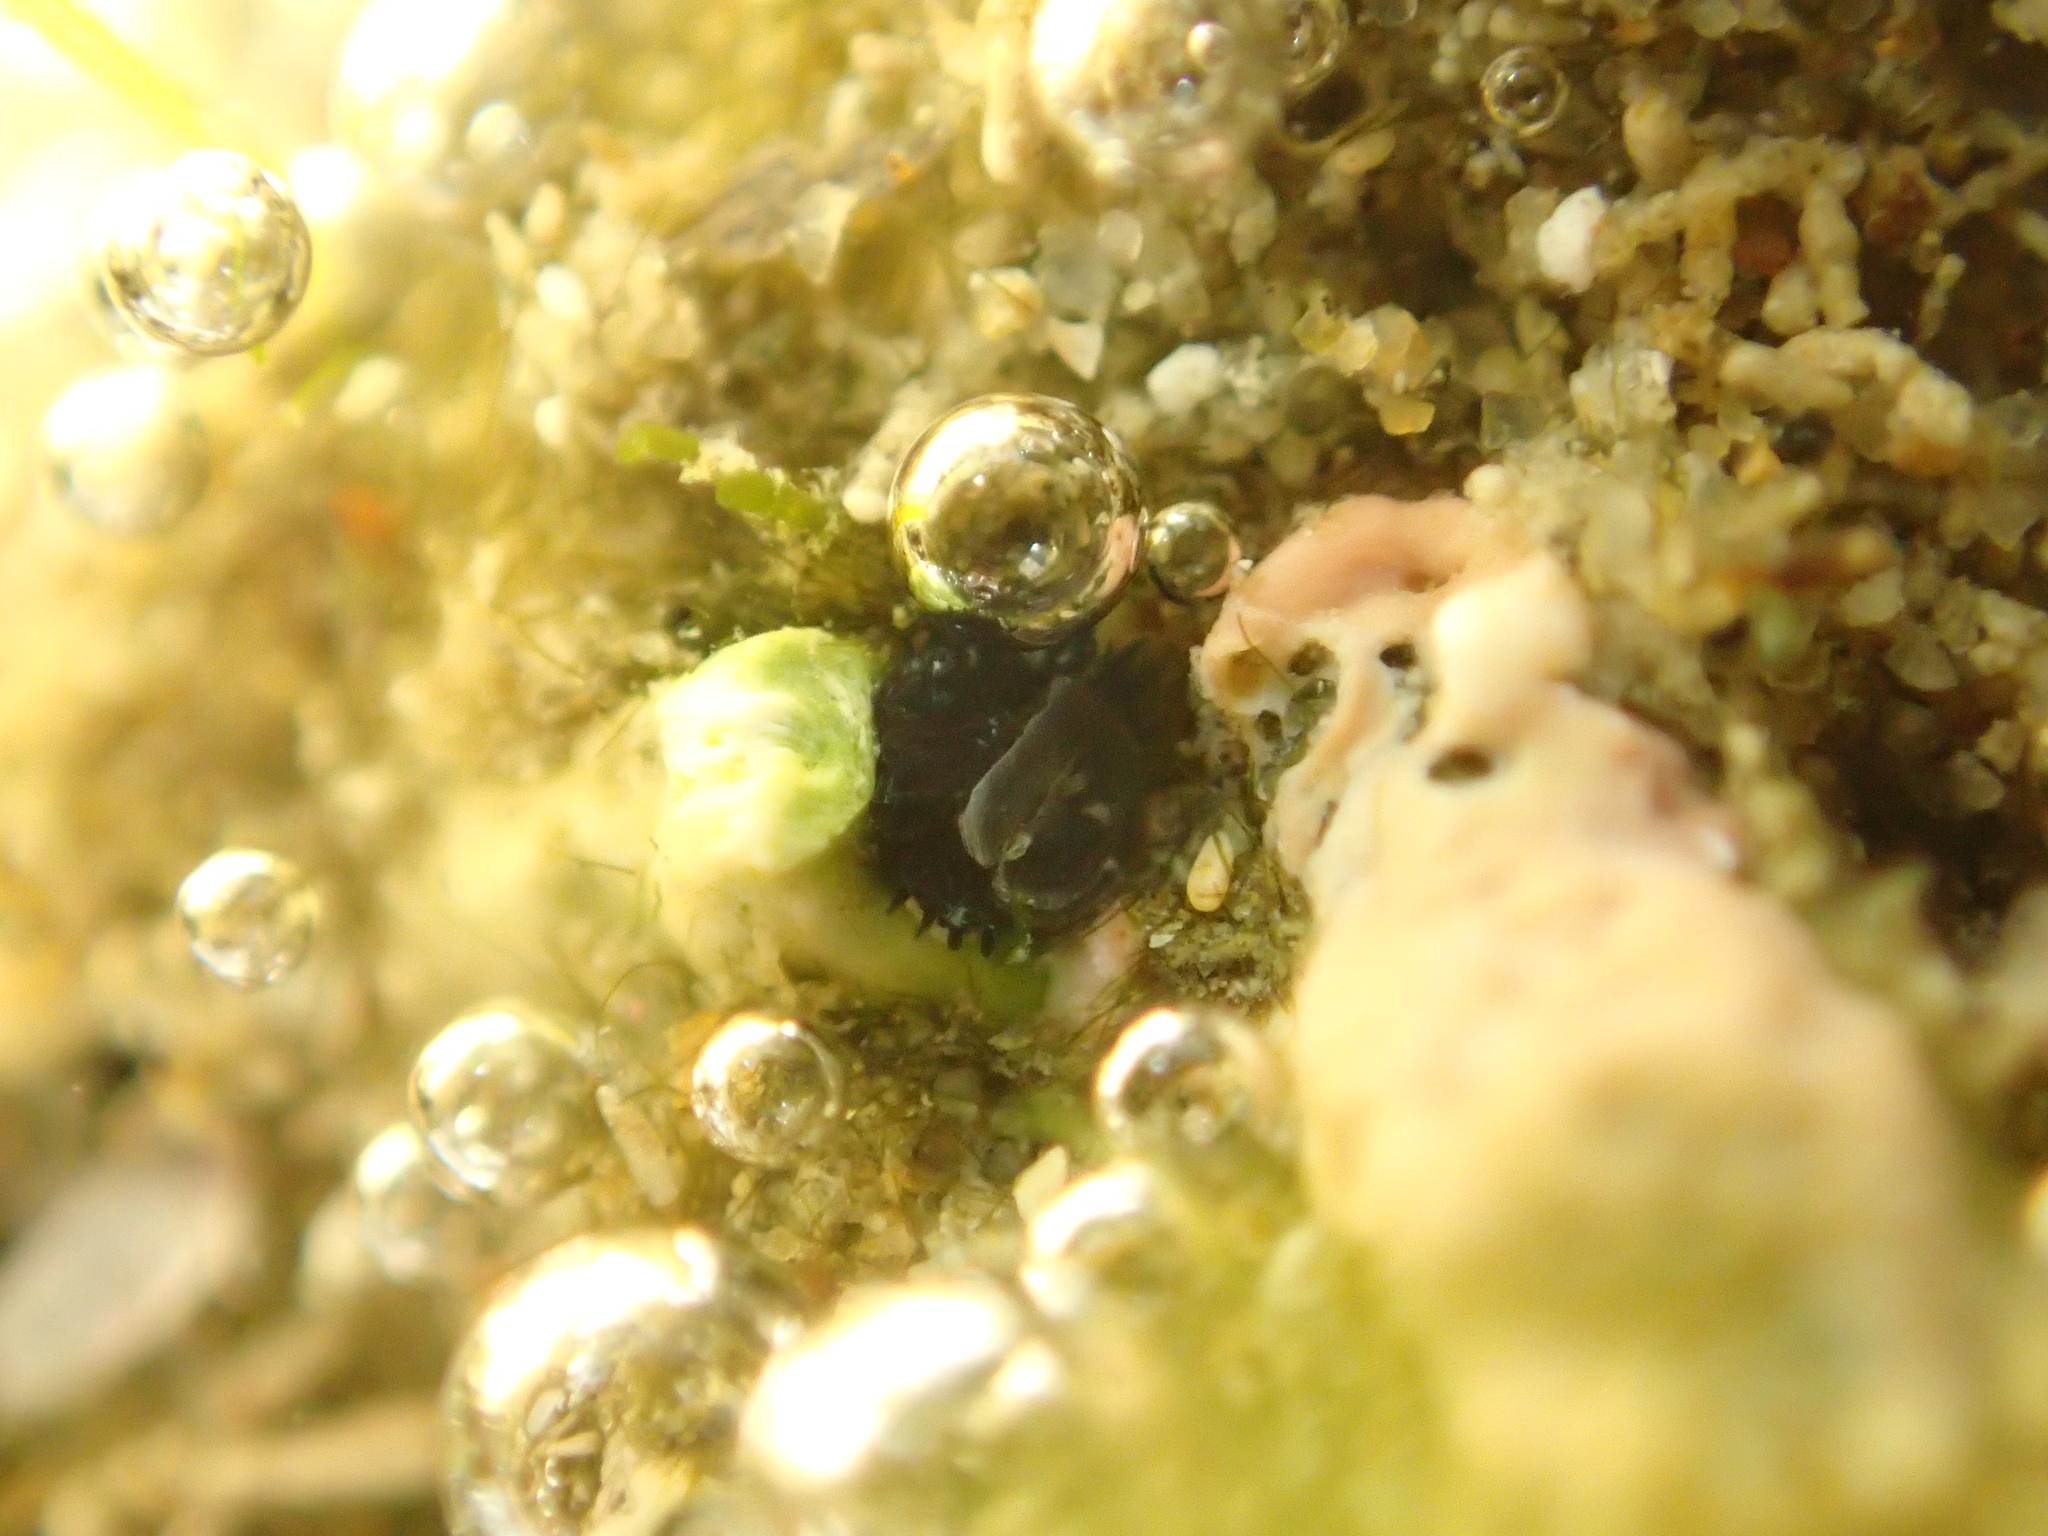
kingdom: Animalia
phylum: Annelida
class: Polychaeta
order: Sabellida
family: Serpulidae
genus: Spirobranchus
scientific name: Spirobranchus cariniferus
